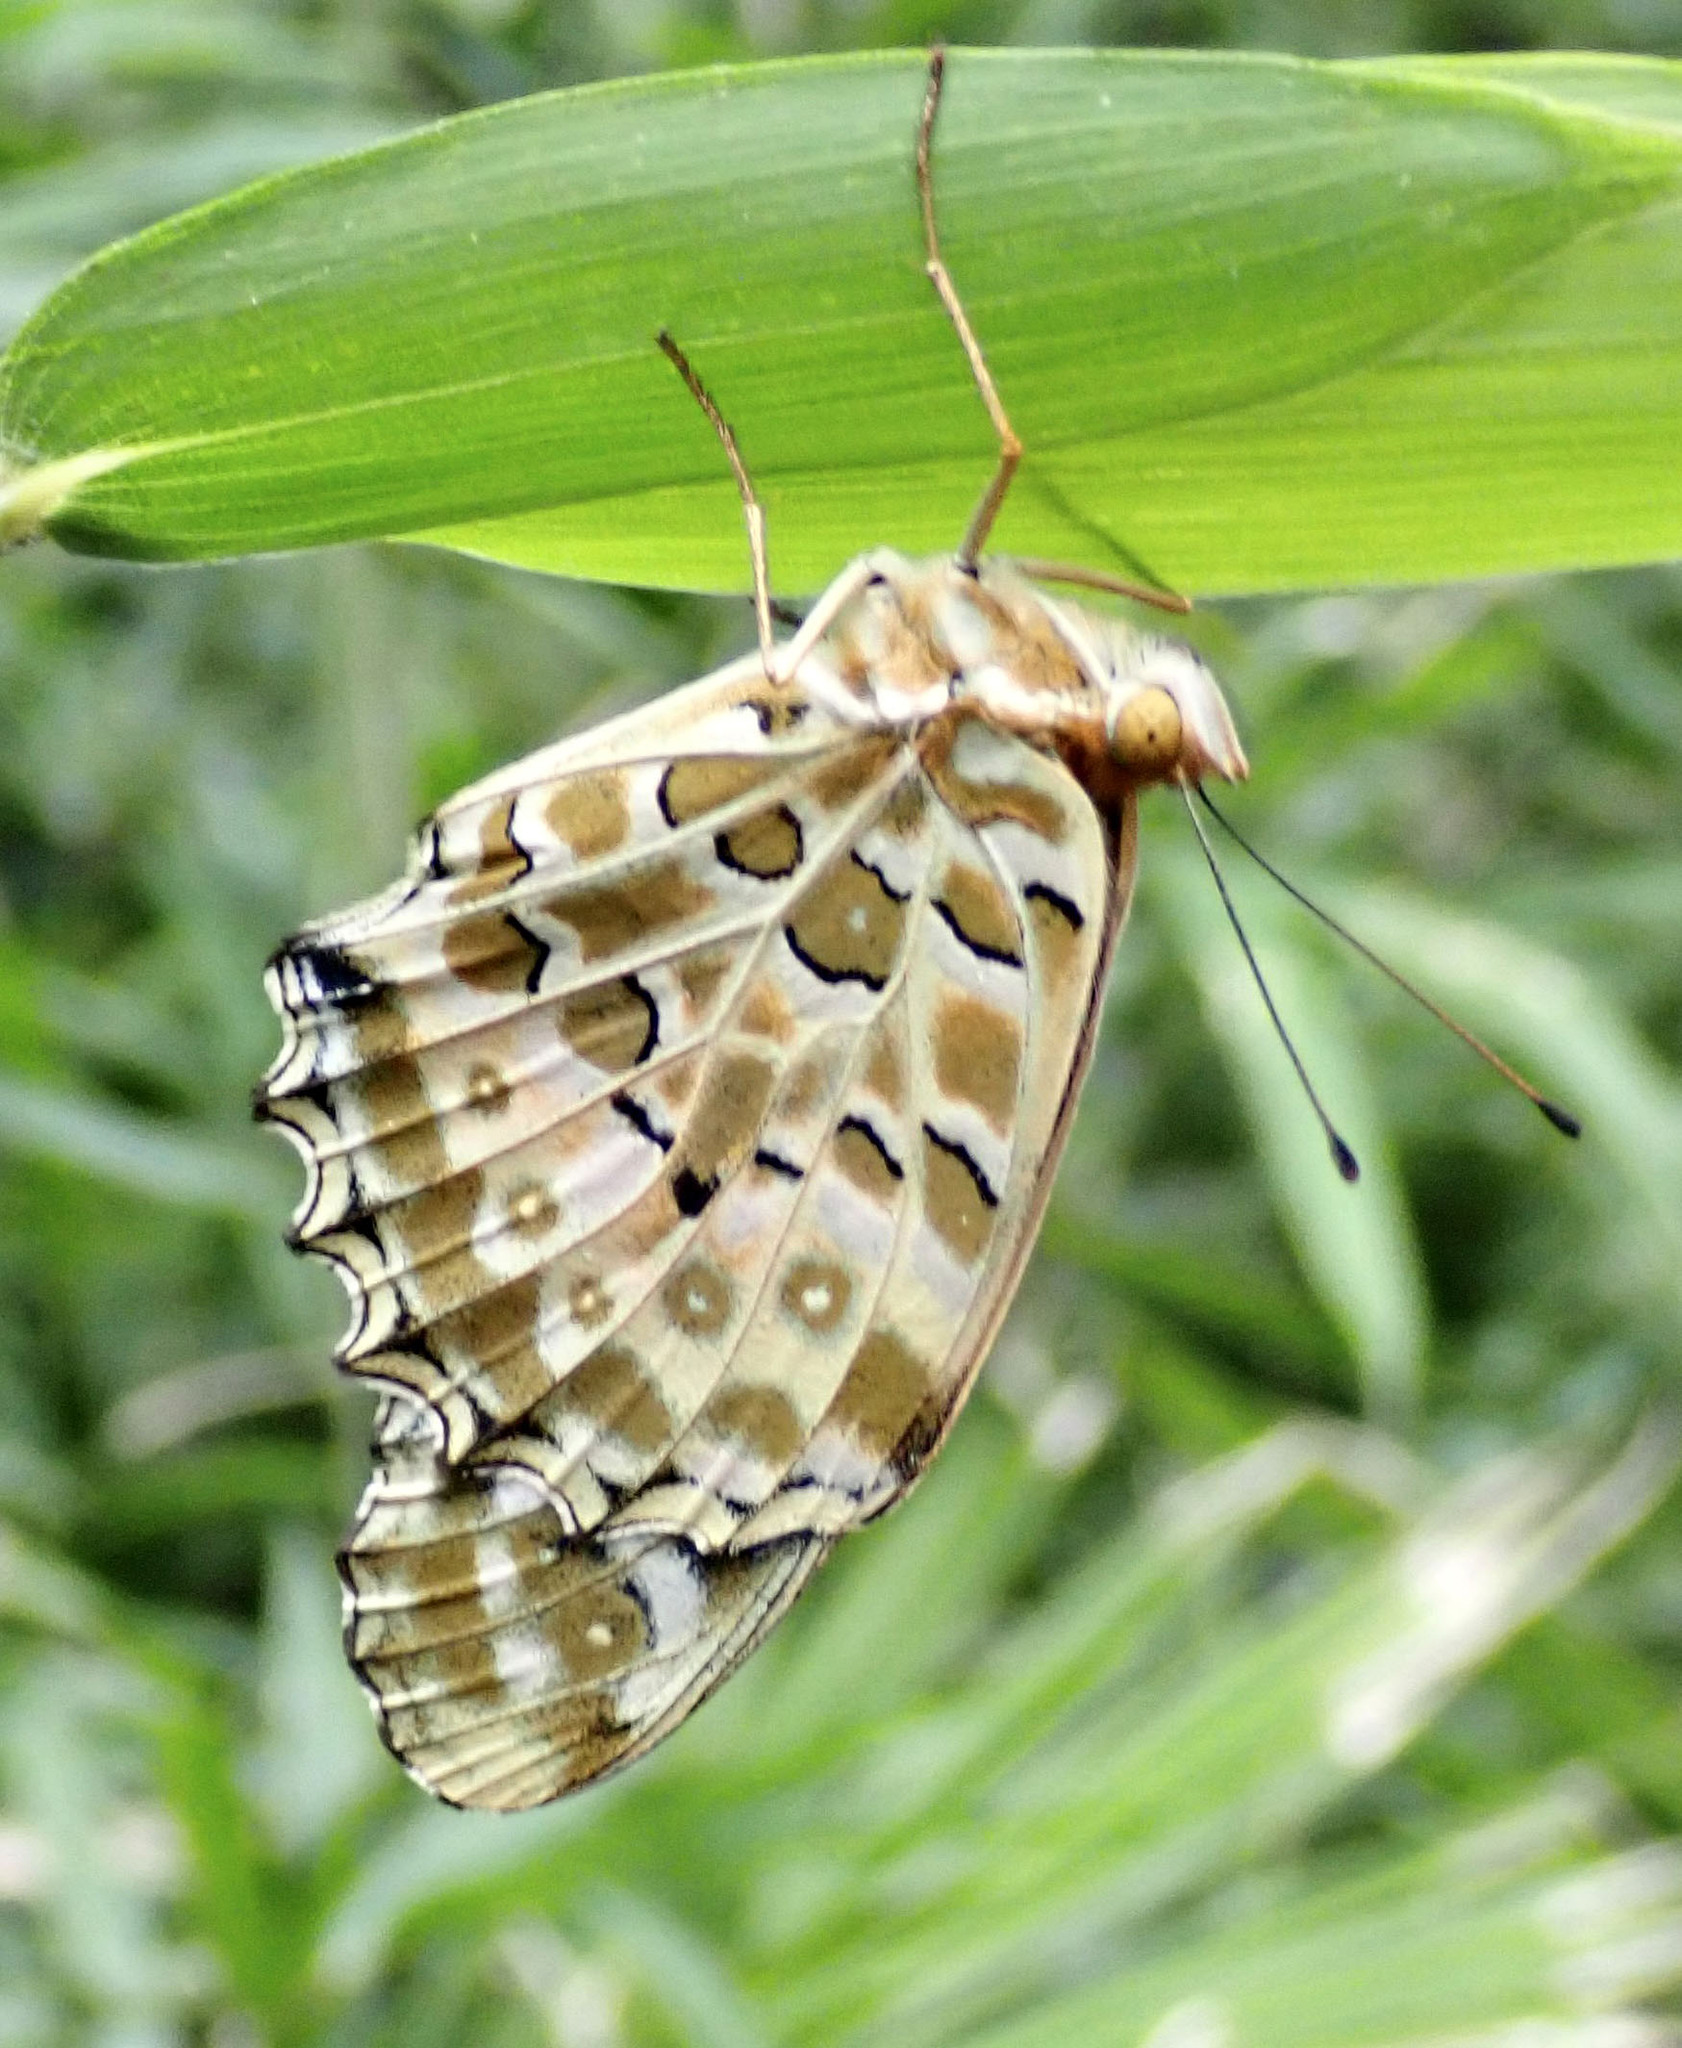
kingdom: Animalia
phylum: Arthropoda
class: Insecta
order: Lepidoptera
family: Nymphalidae
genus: Argynnis
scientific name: Argynnis hyperbius
